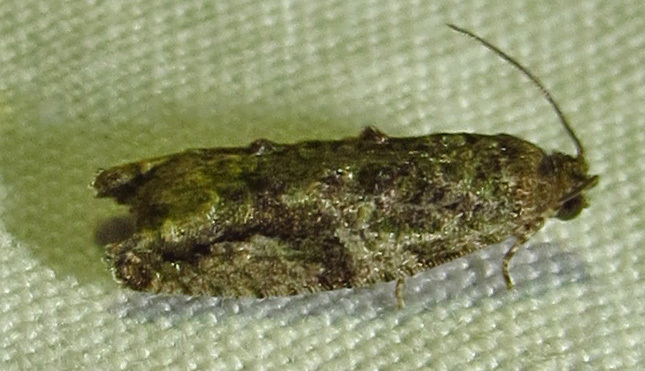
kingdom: Animalia
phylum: Arthropoda
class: Insecta
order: Lepidoptera
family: Tortricidae
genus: Proteoteras
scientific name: Proteoteras aesculana
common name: Maple twig borer moth
